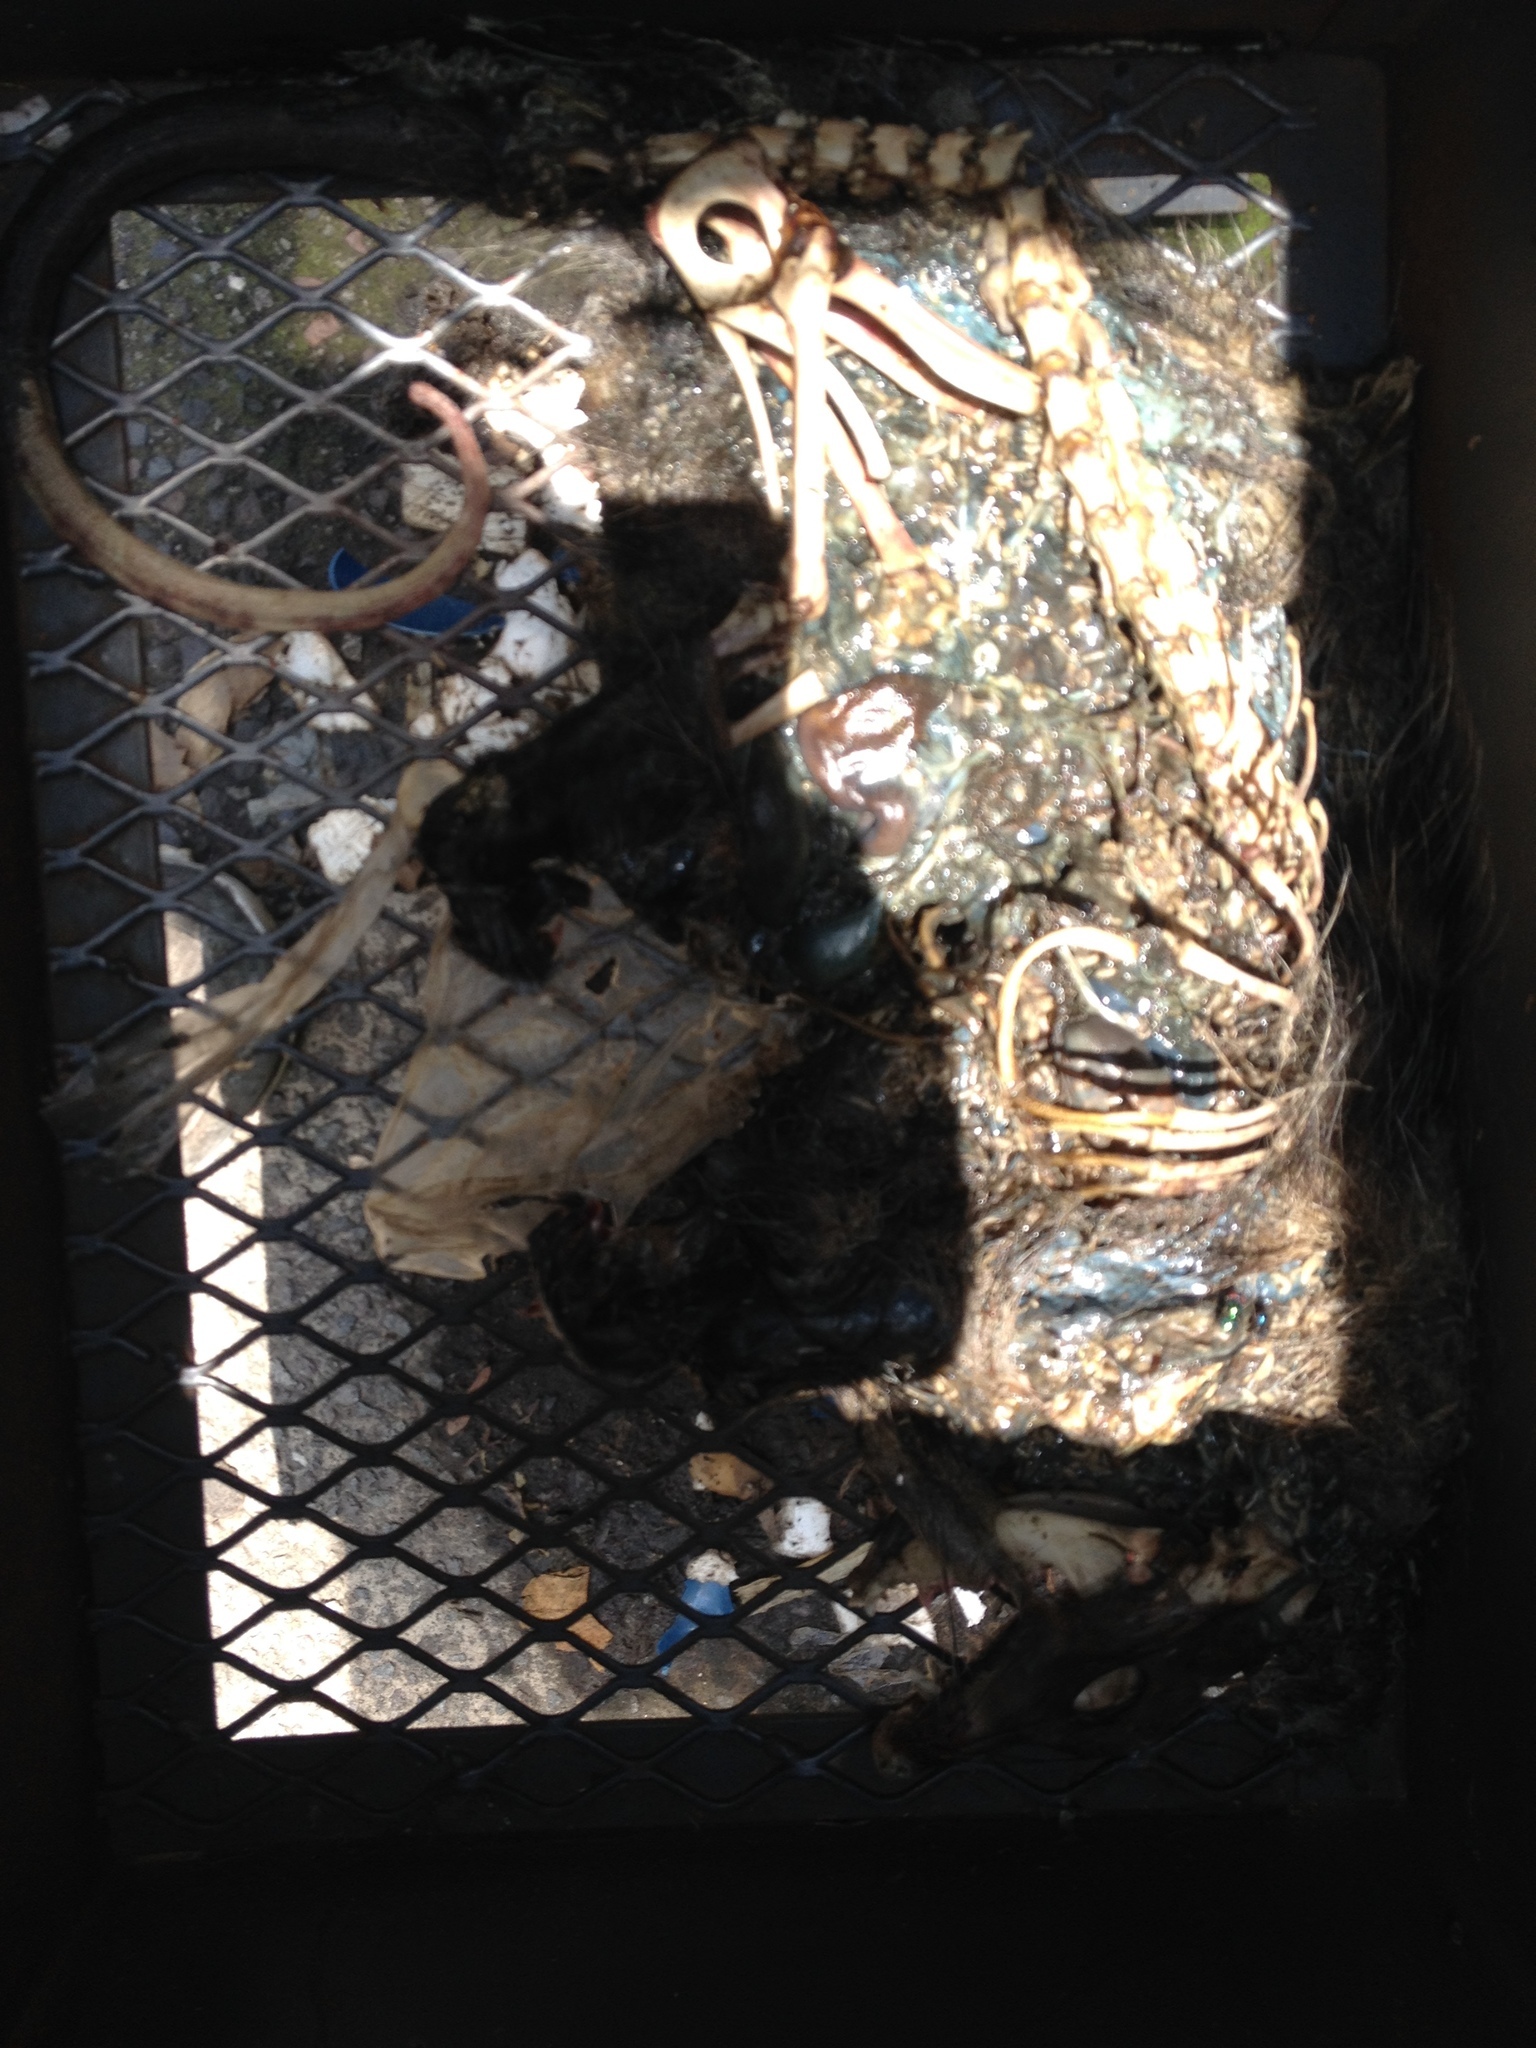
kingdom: Animalia
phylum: Chordata
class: Mammalia
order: Didelphimorphia
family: Didelphidae
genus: Didelphis
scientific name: Didelphis virginiana
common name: Virginia opossum
